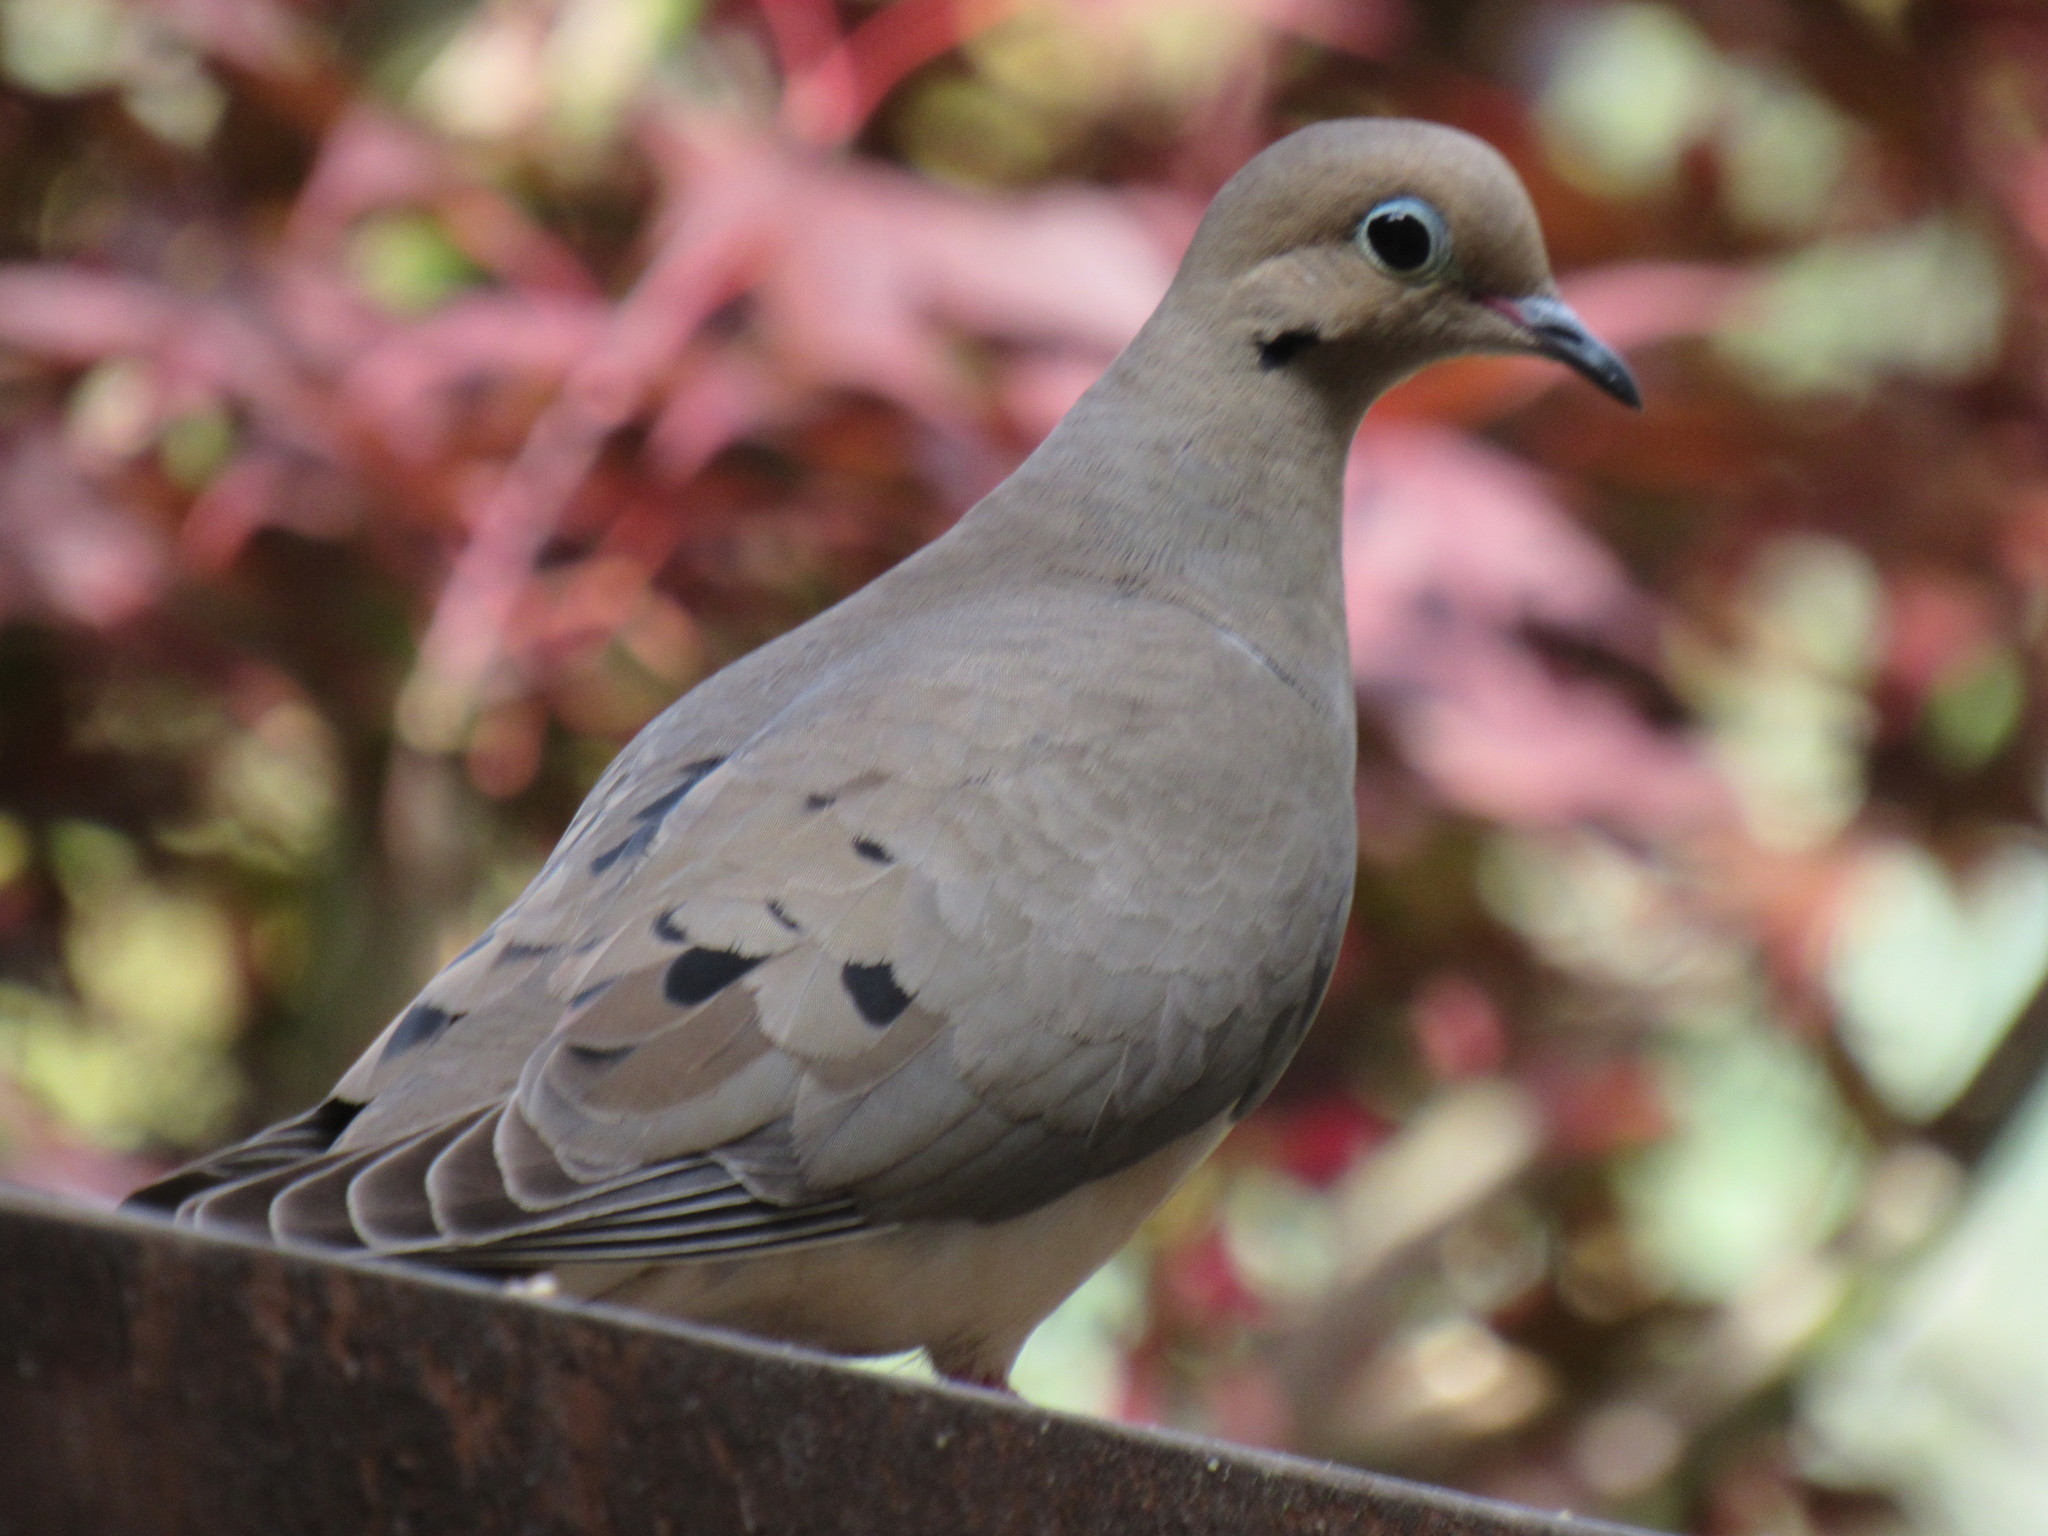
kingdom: Animalia
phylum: Chordata
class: Aves
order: Columbiformes
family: Columbidae
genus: Zenaida
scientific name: Zenaida macroura
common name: Mourning dove
